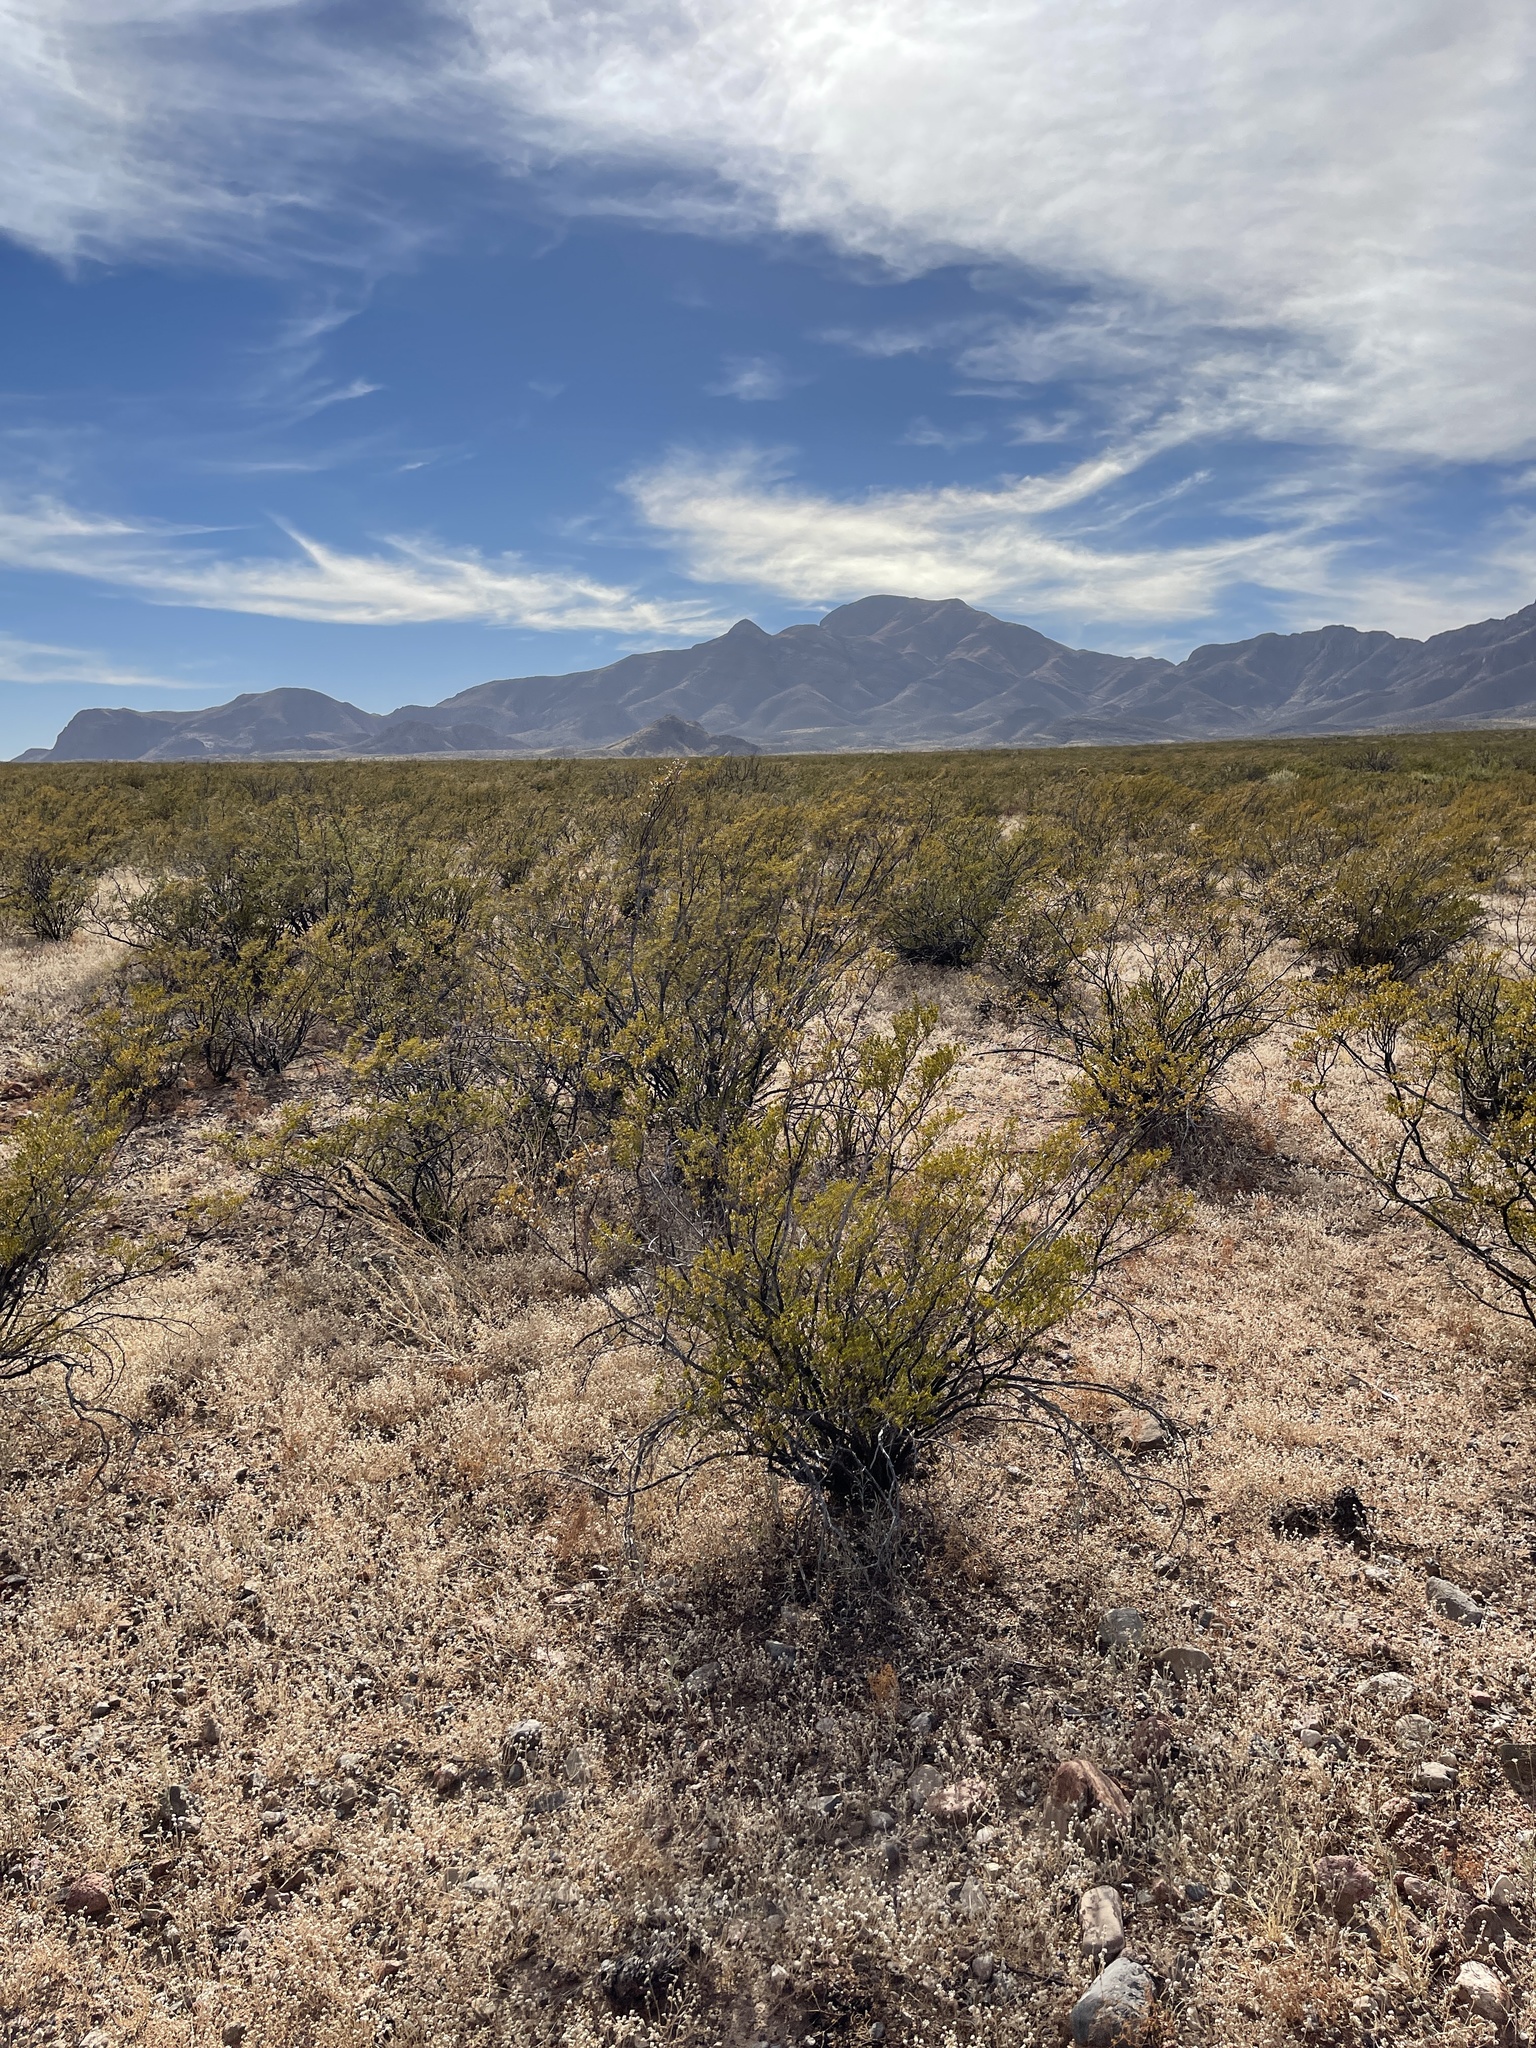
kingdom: Plantae
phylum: Tracheophyta
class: Magnoliopsida
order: Zygophyllales
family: Zygophyllaceae
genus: Larrea
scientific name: Larrea tridentata
